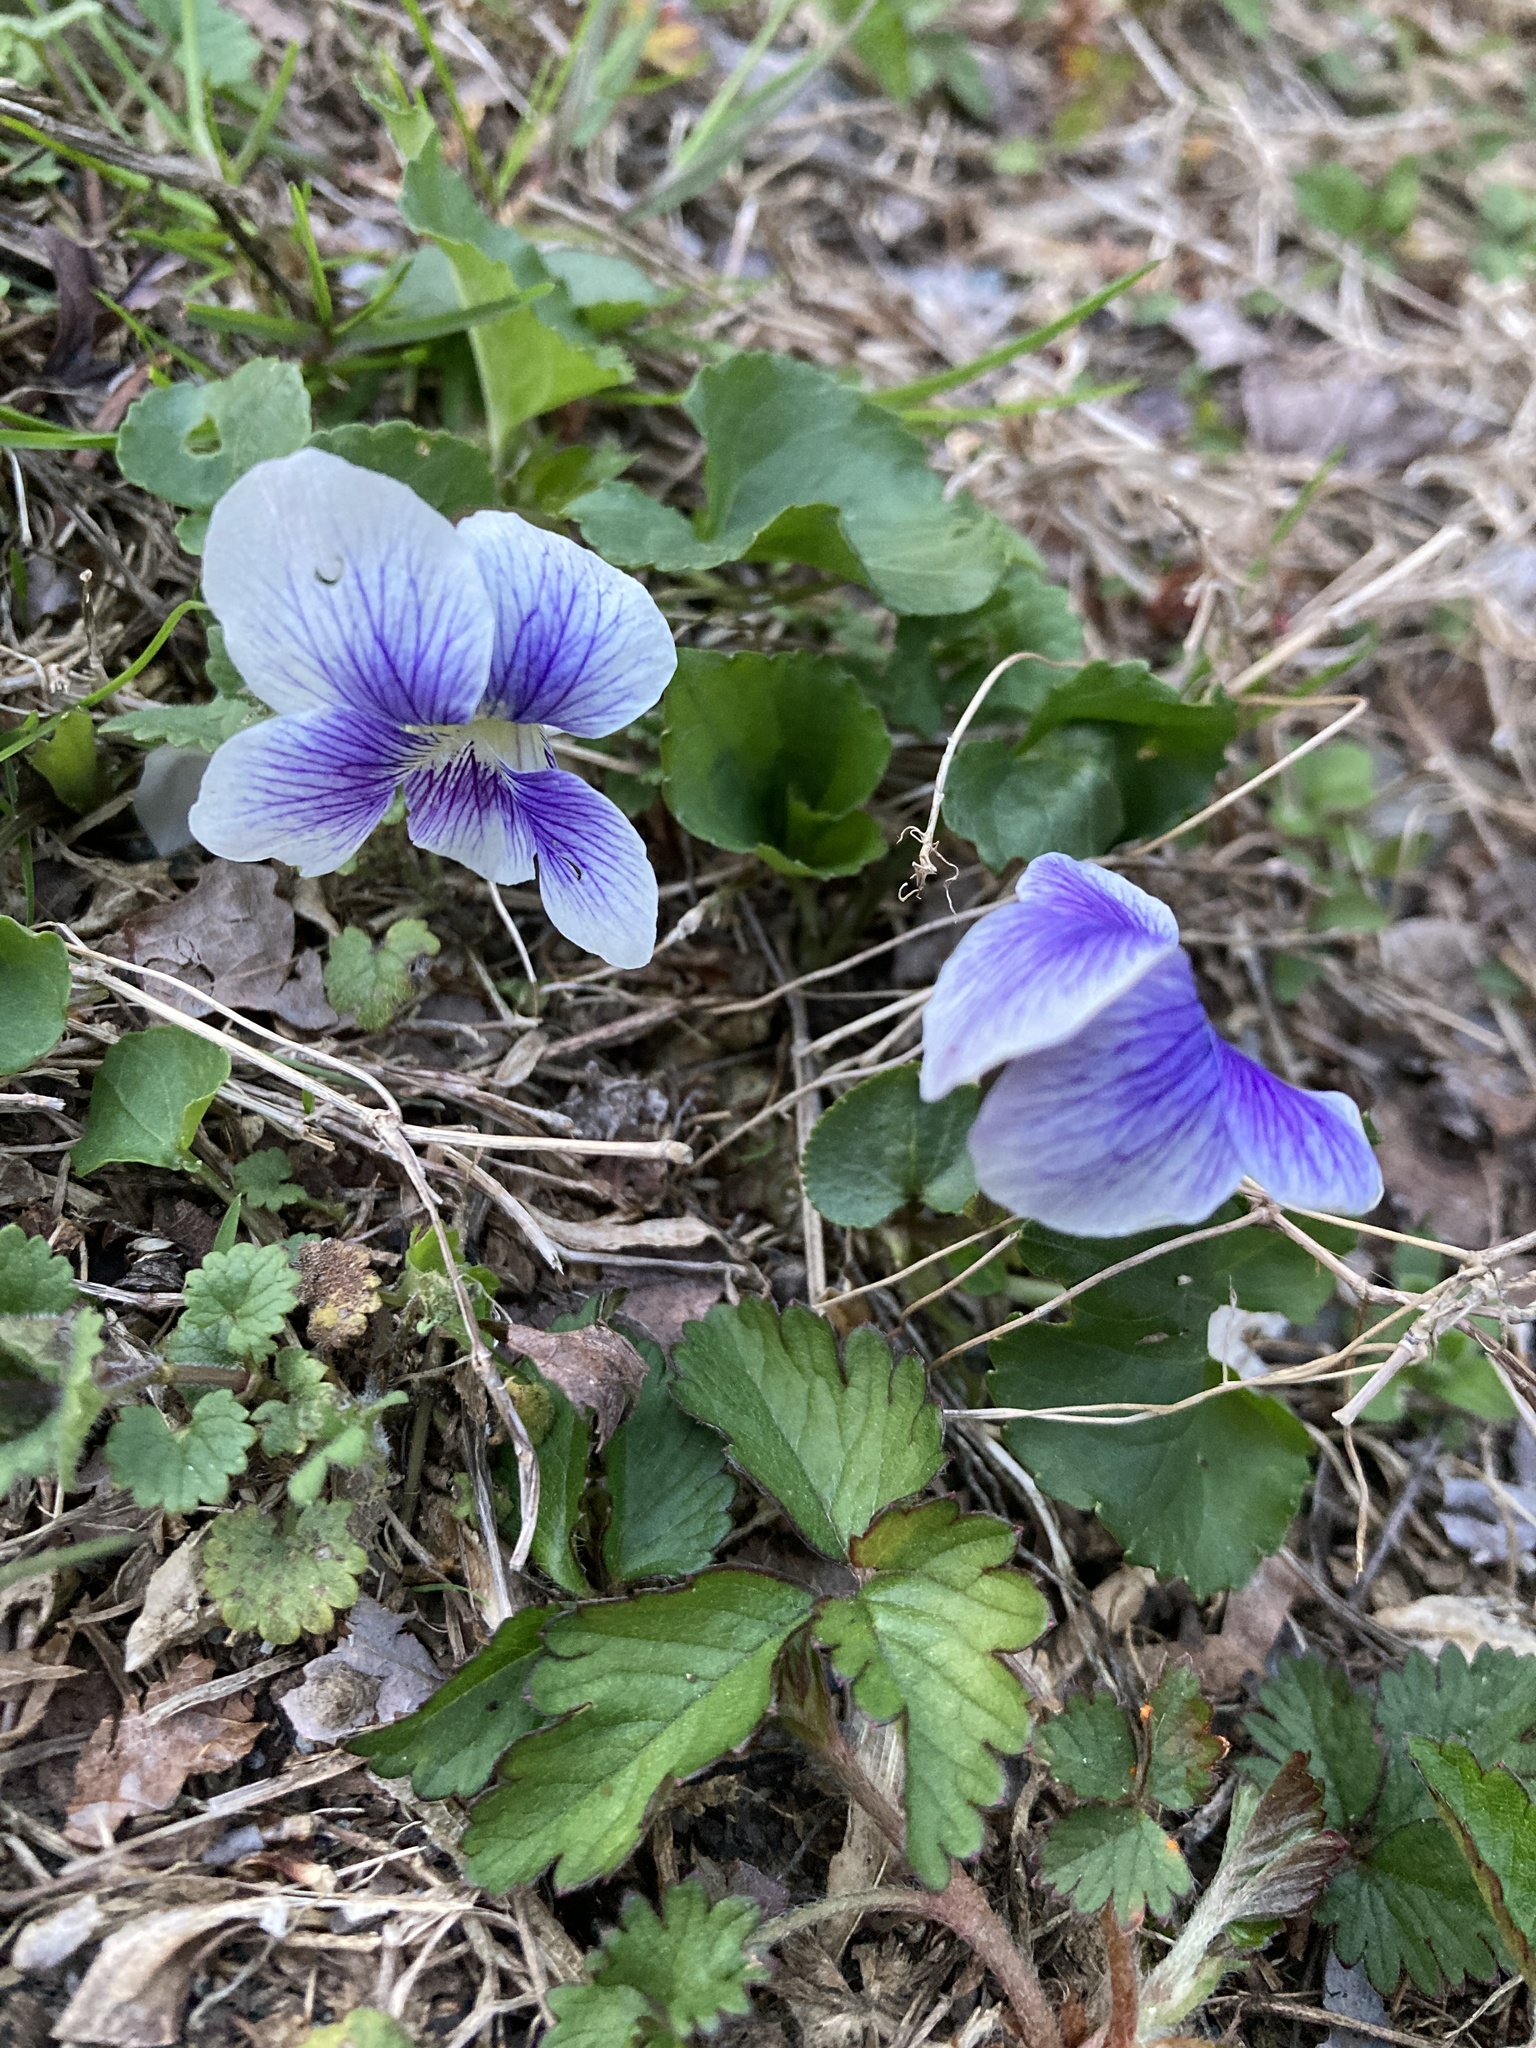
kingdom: Plantae
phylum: Tracheophyta
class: Magnoliopsida
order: Malpighiales
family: Violaceae
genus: Viola
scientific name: Viola sororia
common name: Dooryard violet
